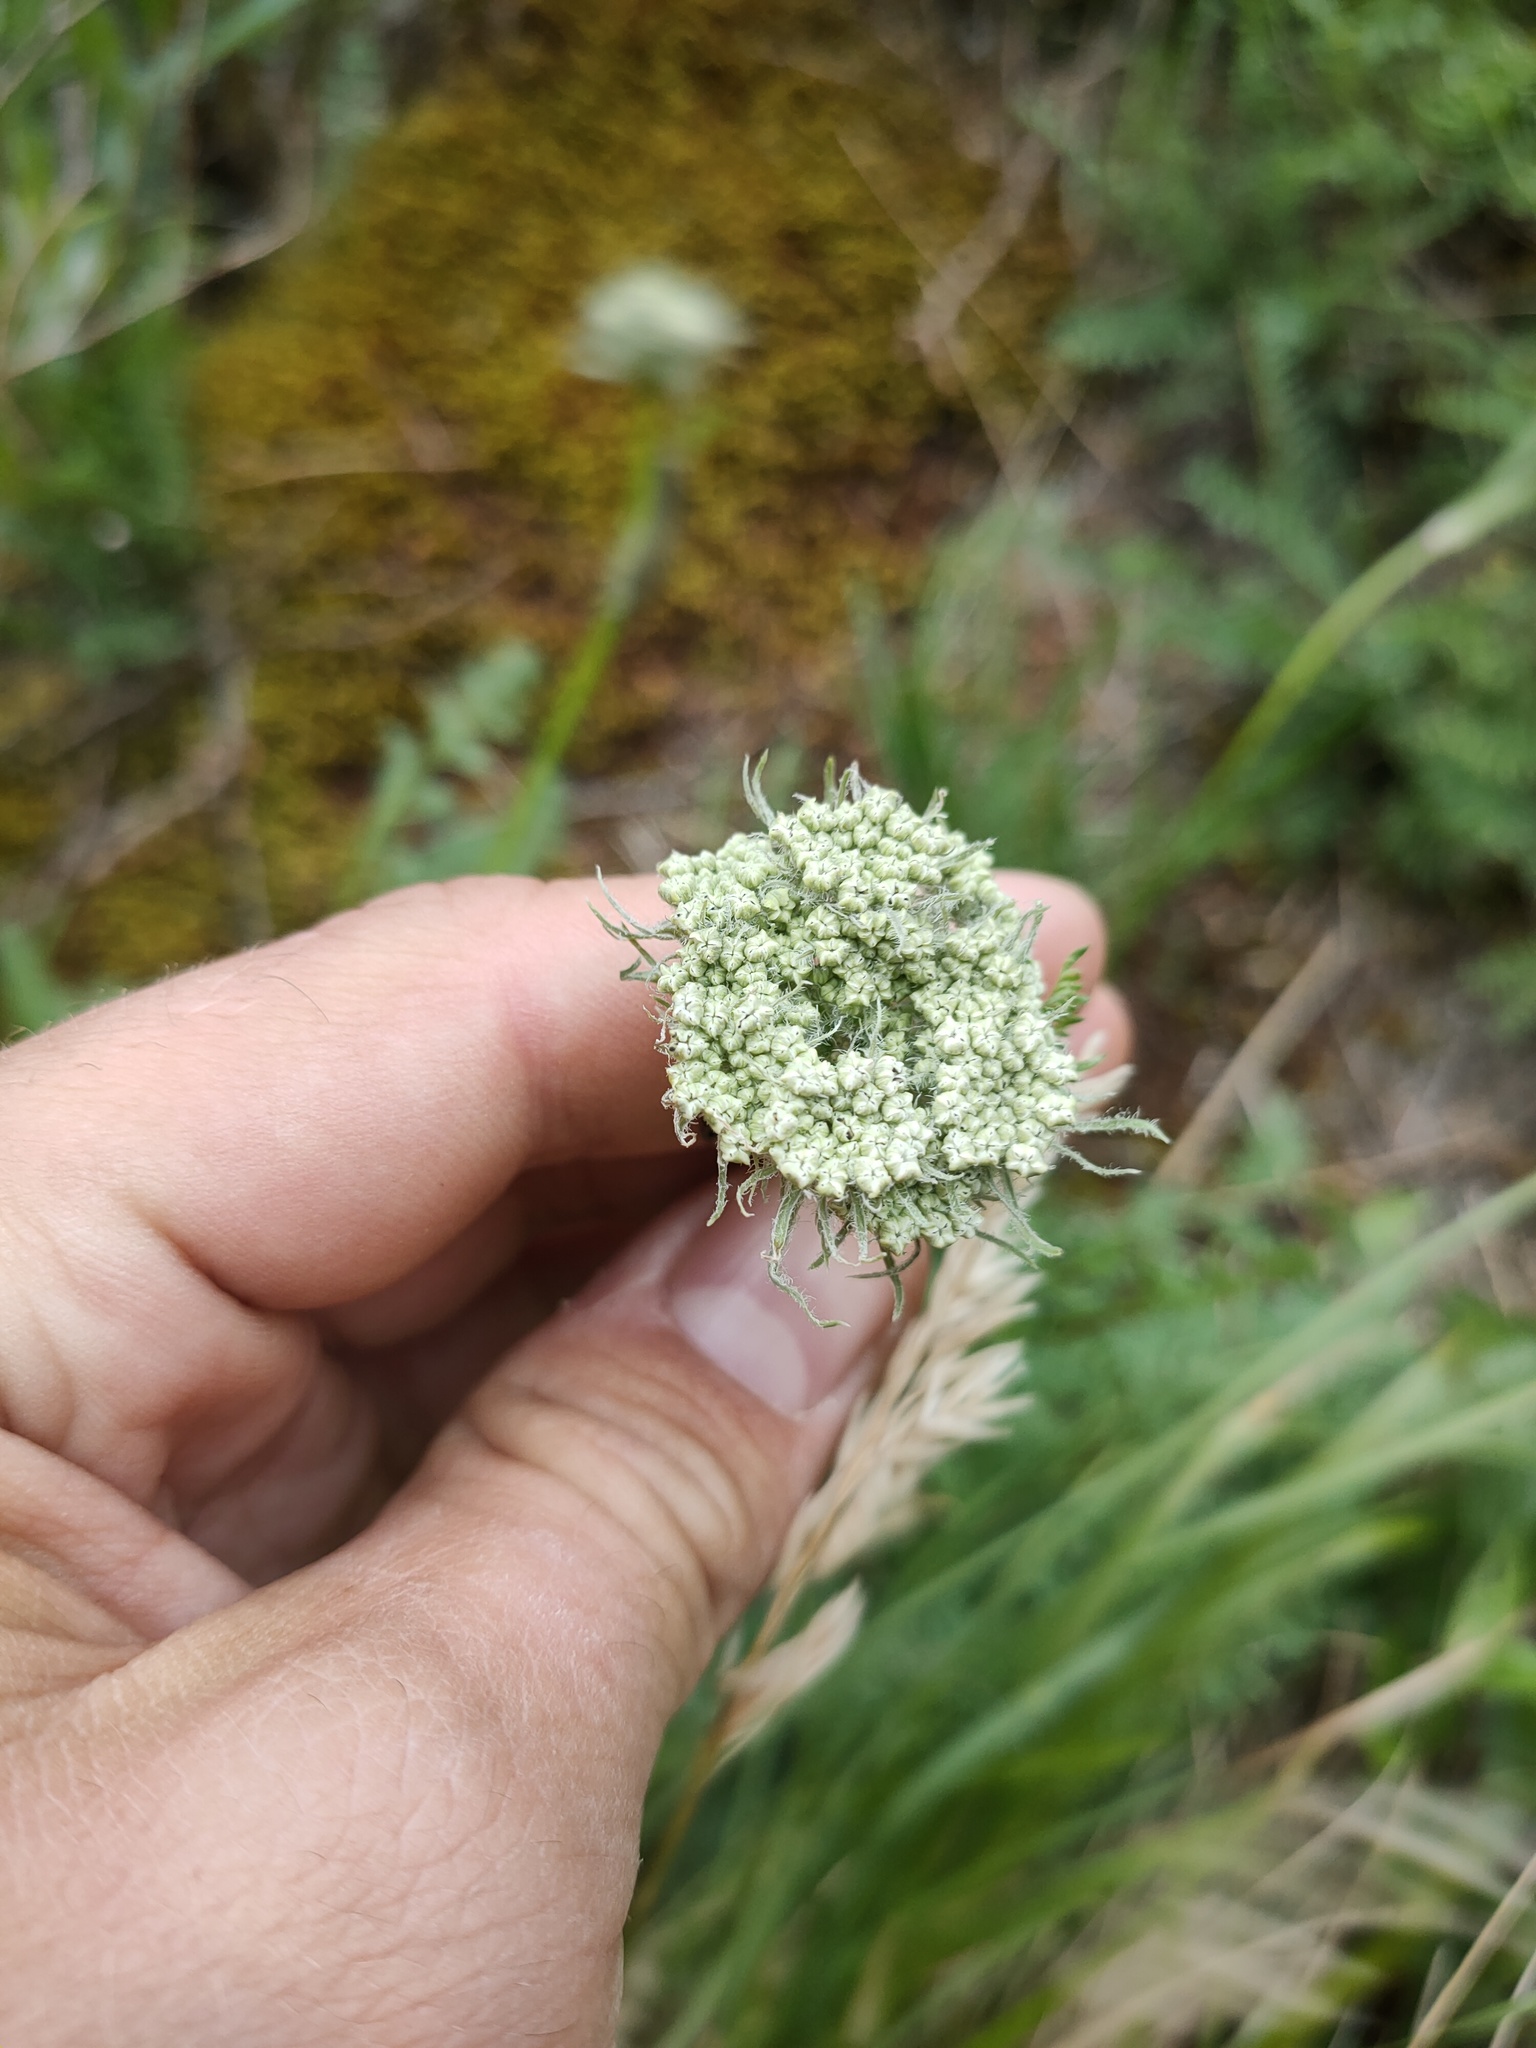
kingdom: Plantae
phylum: Tracheophyta
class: Magnoliopsida
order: Apiales
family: Apiaceae
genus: Seseli
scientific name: Seseli condensatum
